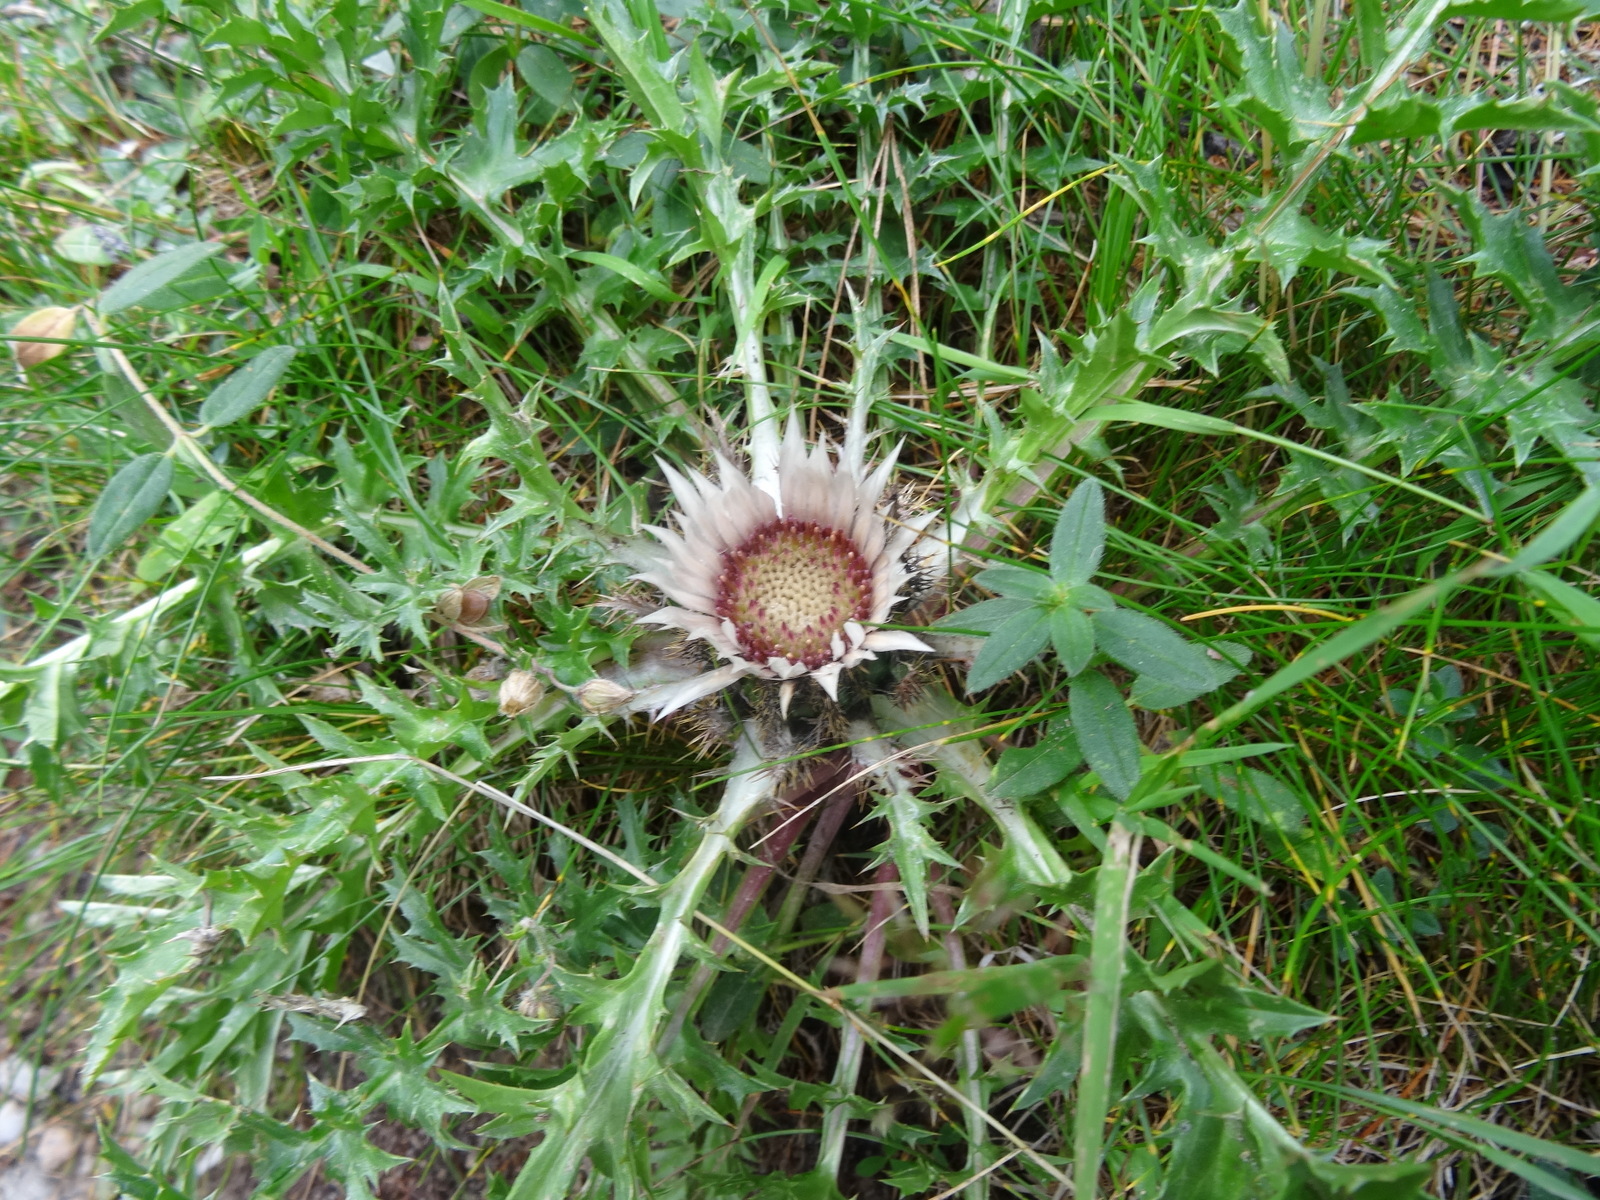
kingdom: Plantae
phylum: Tracheophyta
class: Magnoliopsida
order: Asterales
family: Asteraceae
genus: Carlina
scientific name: Carlina acaulis
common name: Stemless carline thistle
